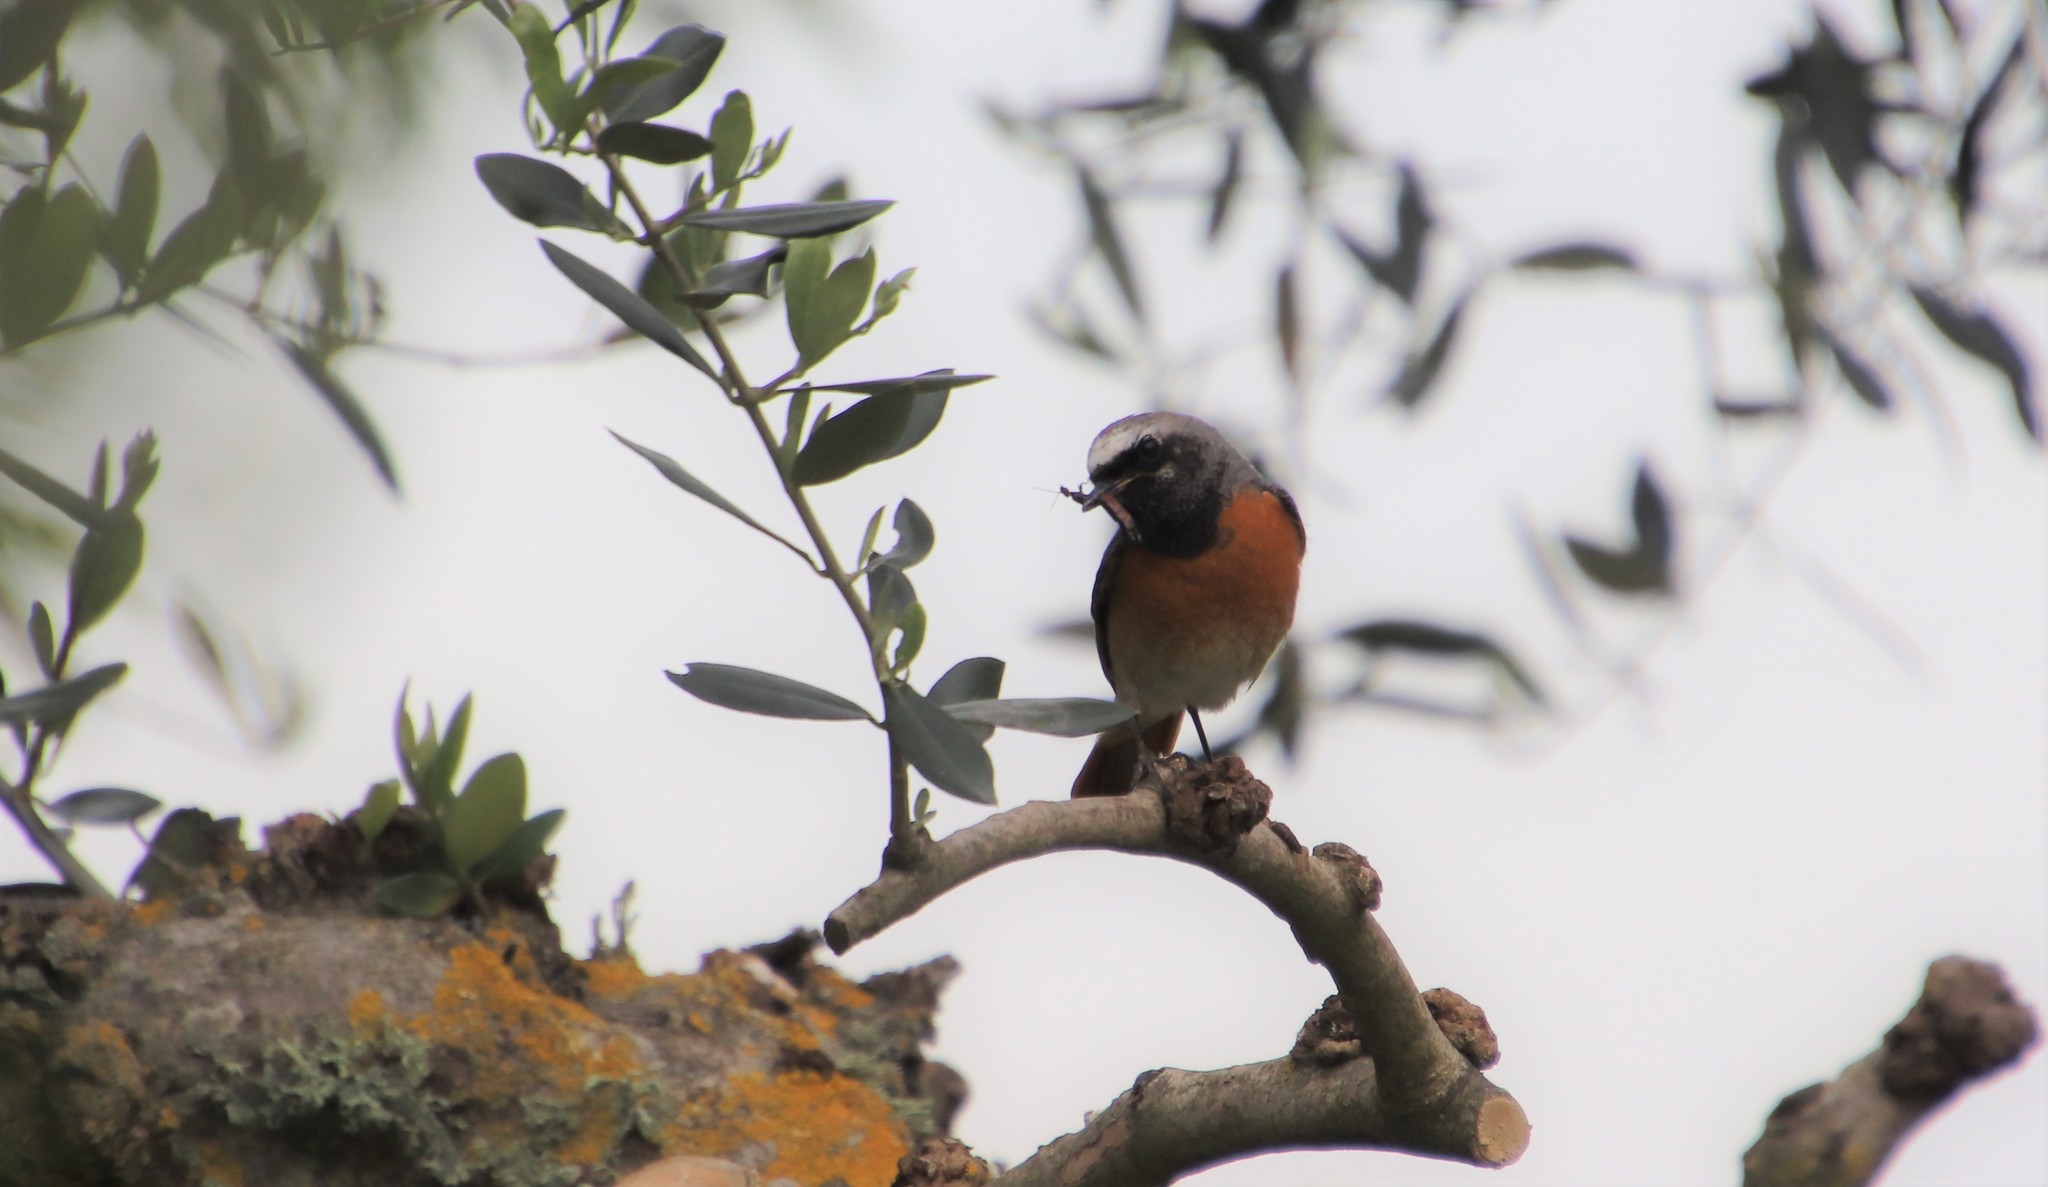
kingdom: Animalia
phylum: Chordata
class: Aves
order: Passeriformes
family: Muscicapidae
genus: Phoenicurus
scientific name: Phoenicurus phoenicurus
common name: Common redstart
